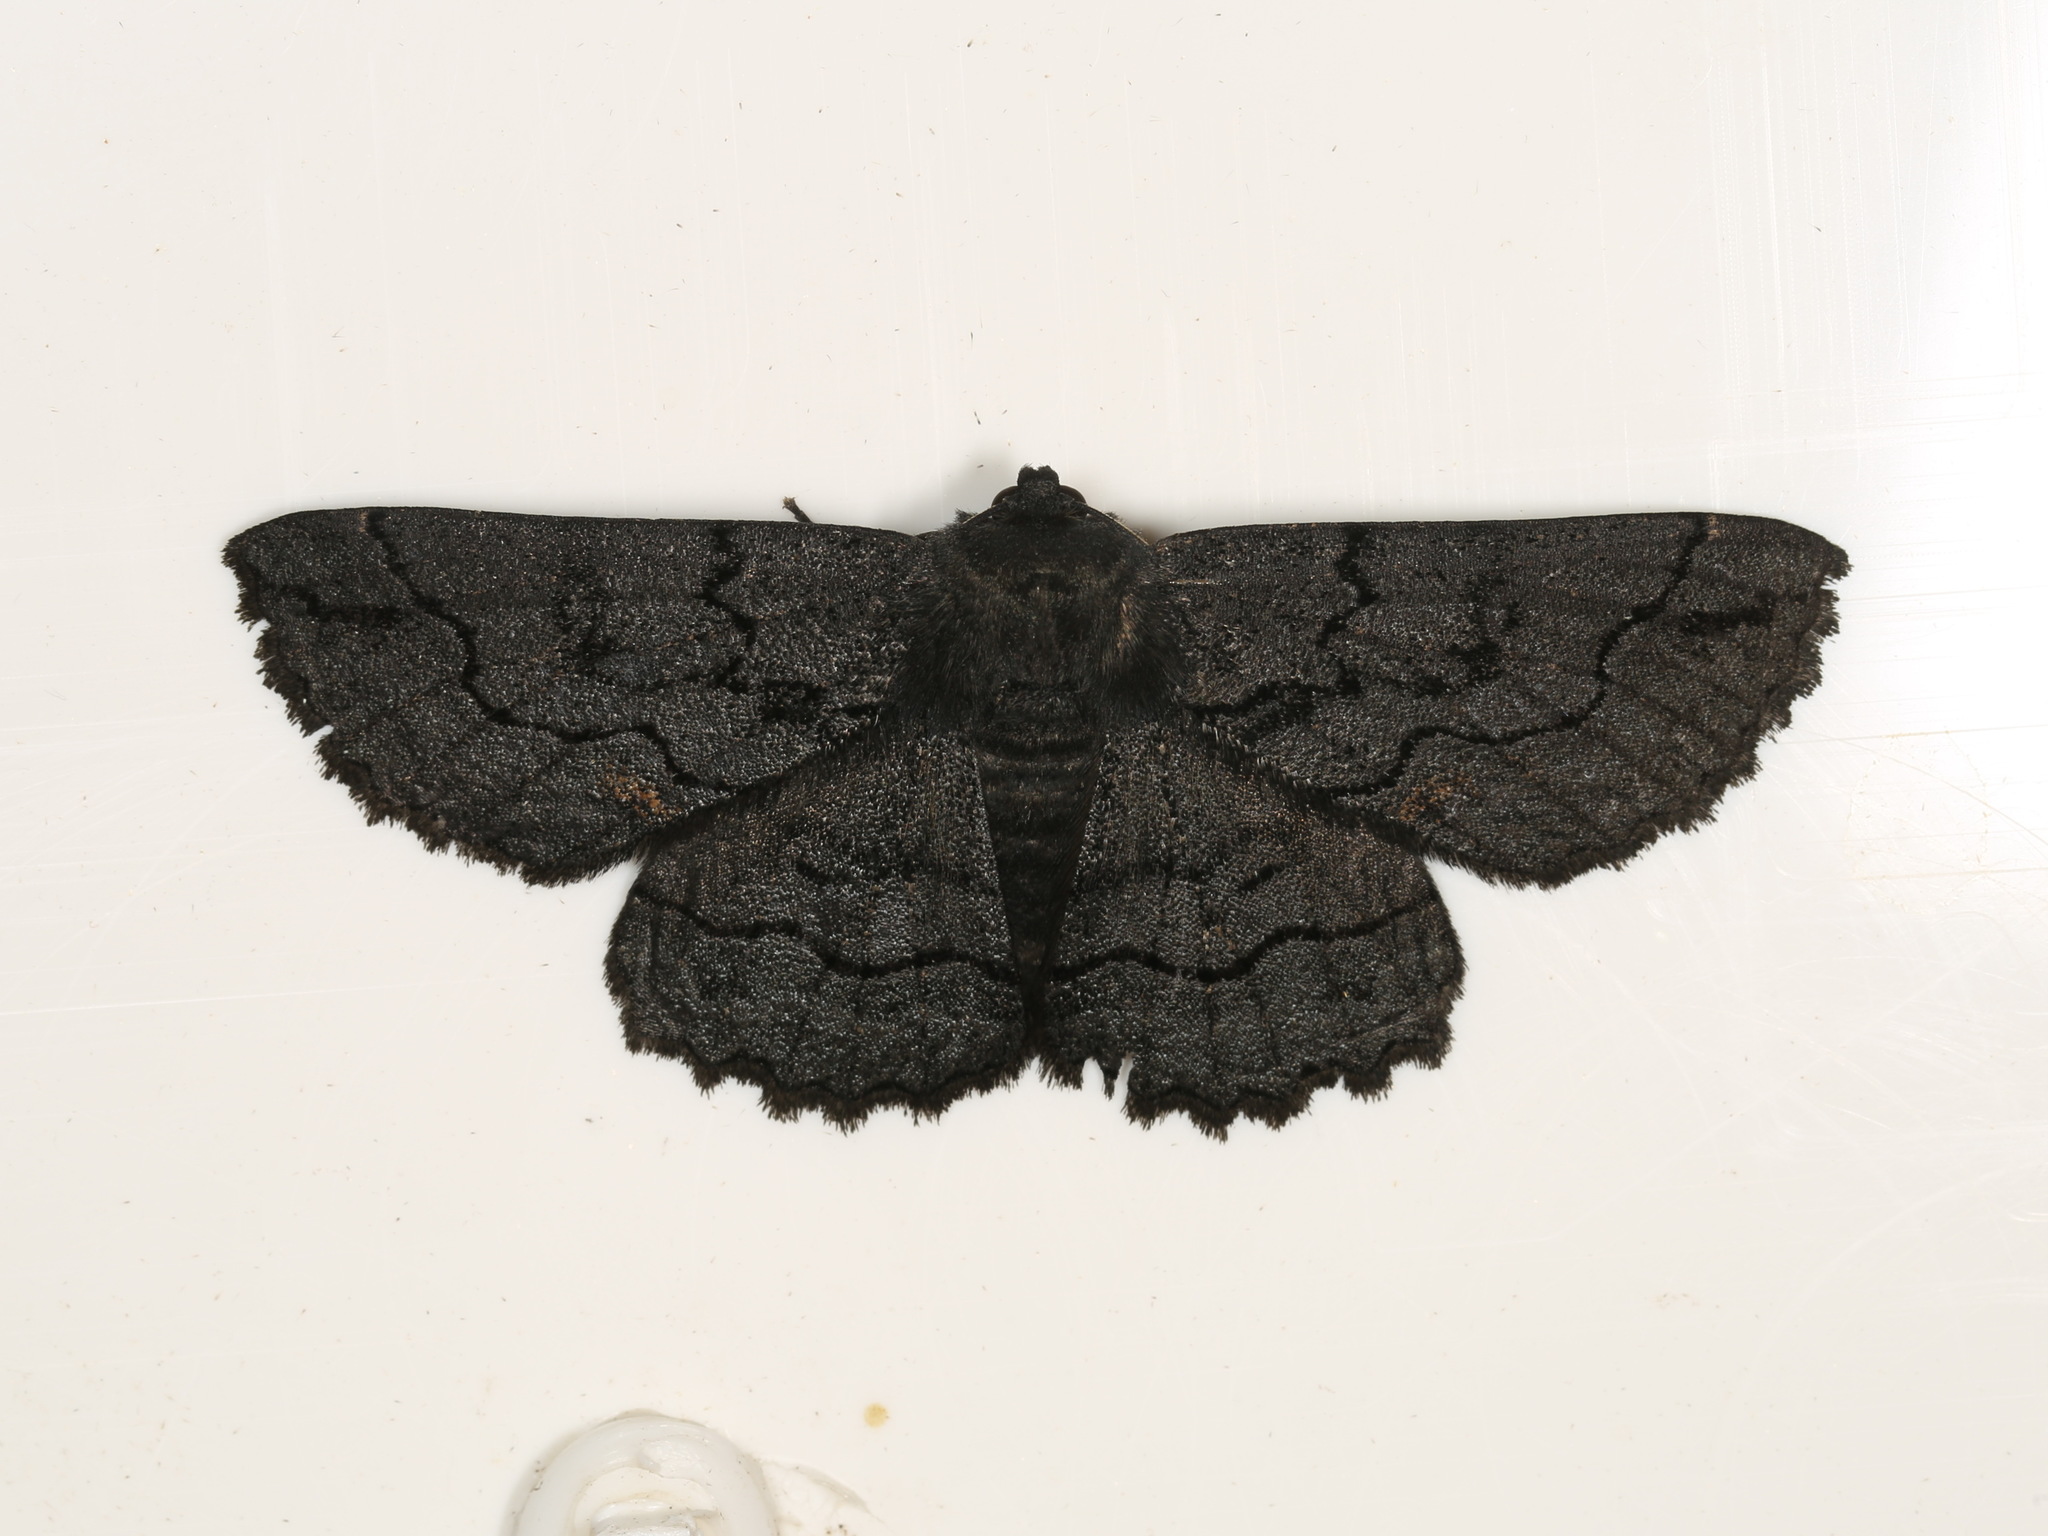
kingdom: Animalia
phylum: Arthropoda
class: Insecta
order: Lepidoptera
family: Geometridae
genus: Melanodes
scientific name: Melanodes anthracitaria
